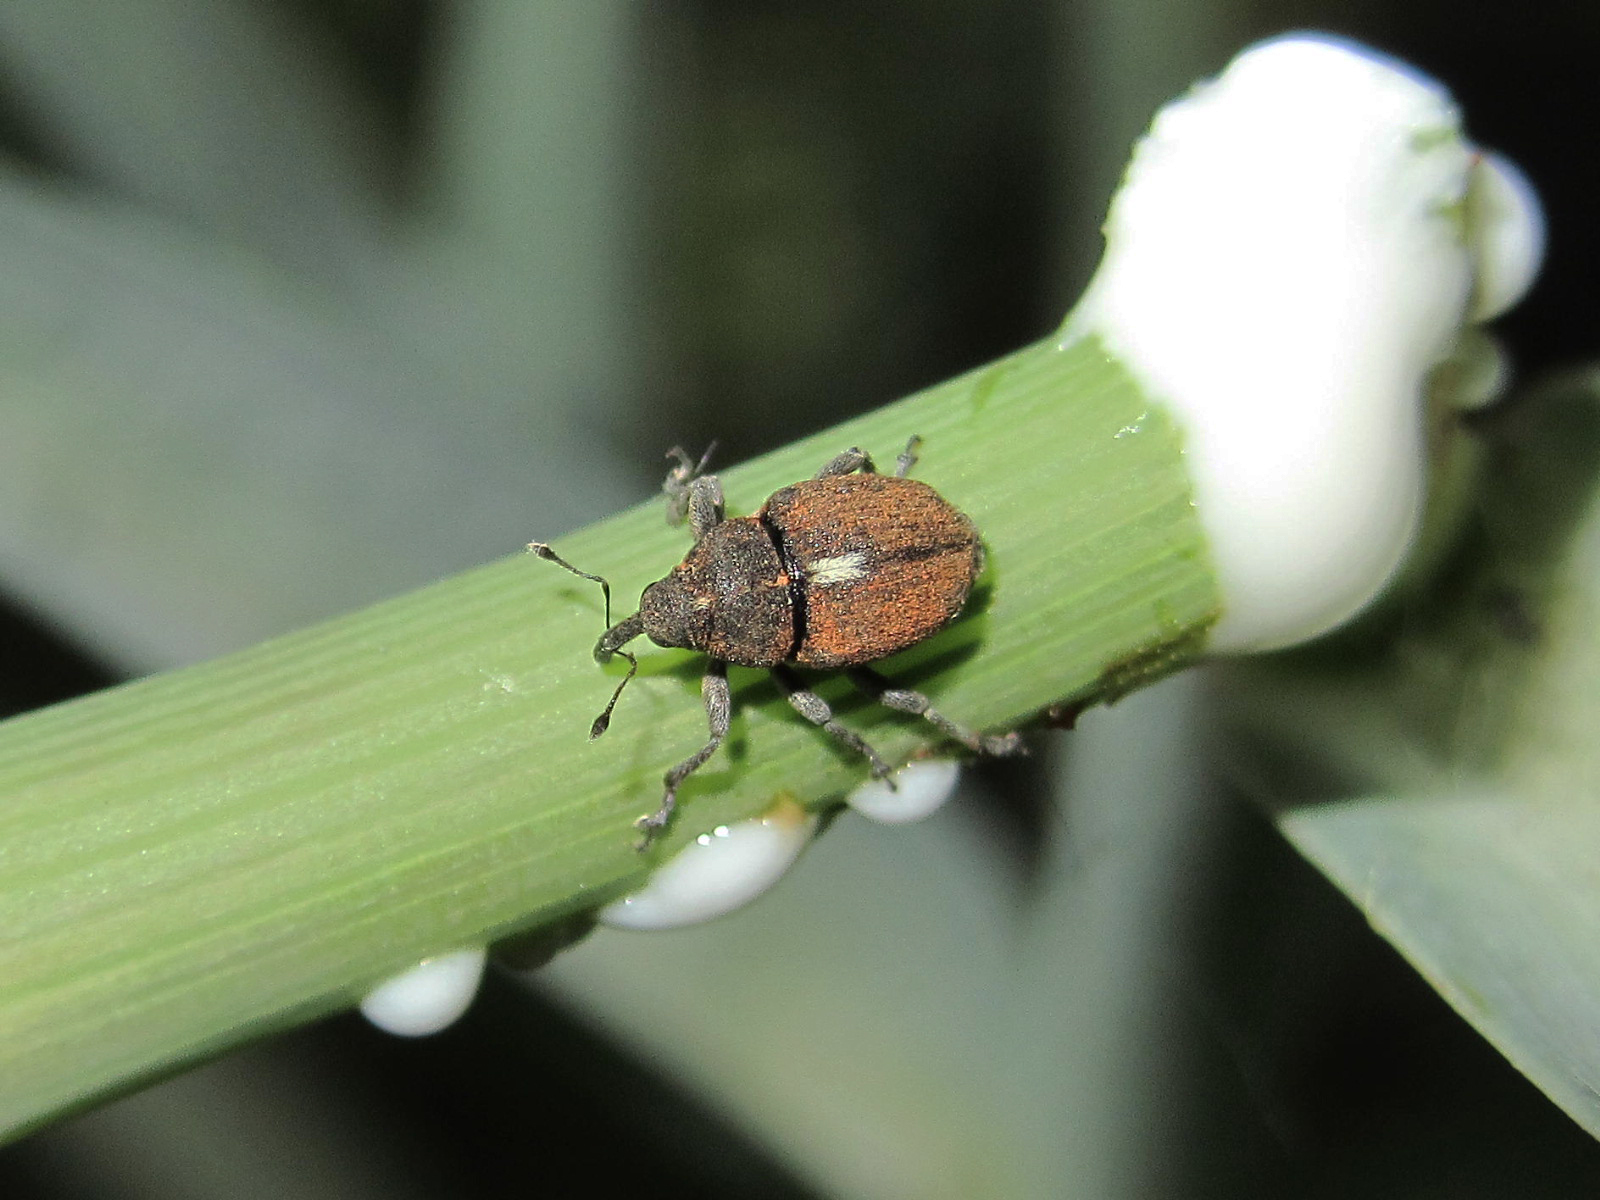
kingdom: Animalia
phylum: Arthropoda
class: Insecta
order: Coleoptera
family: Curculionidae
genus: Glocianus
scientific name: Glocianus herbsti
